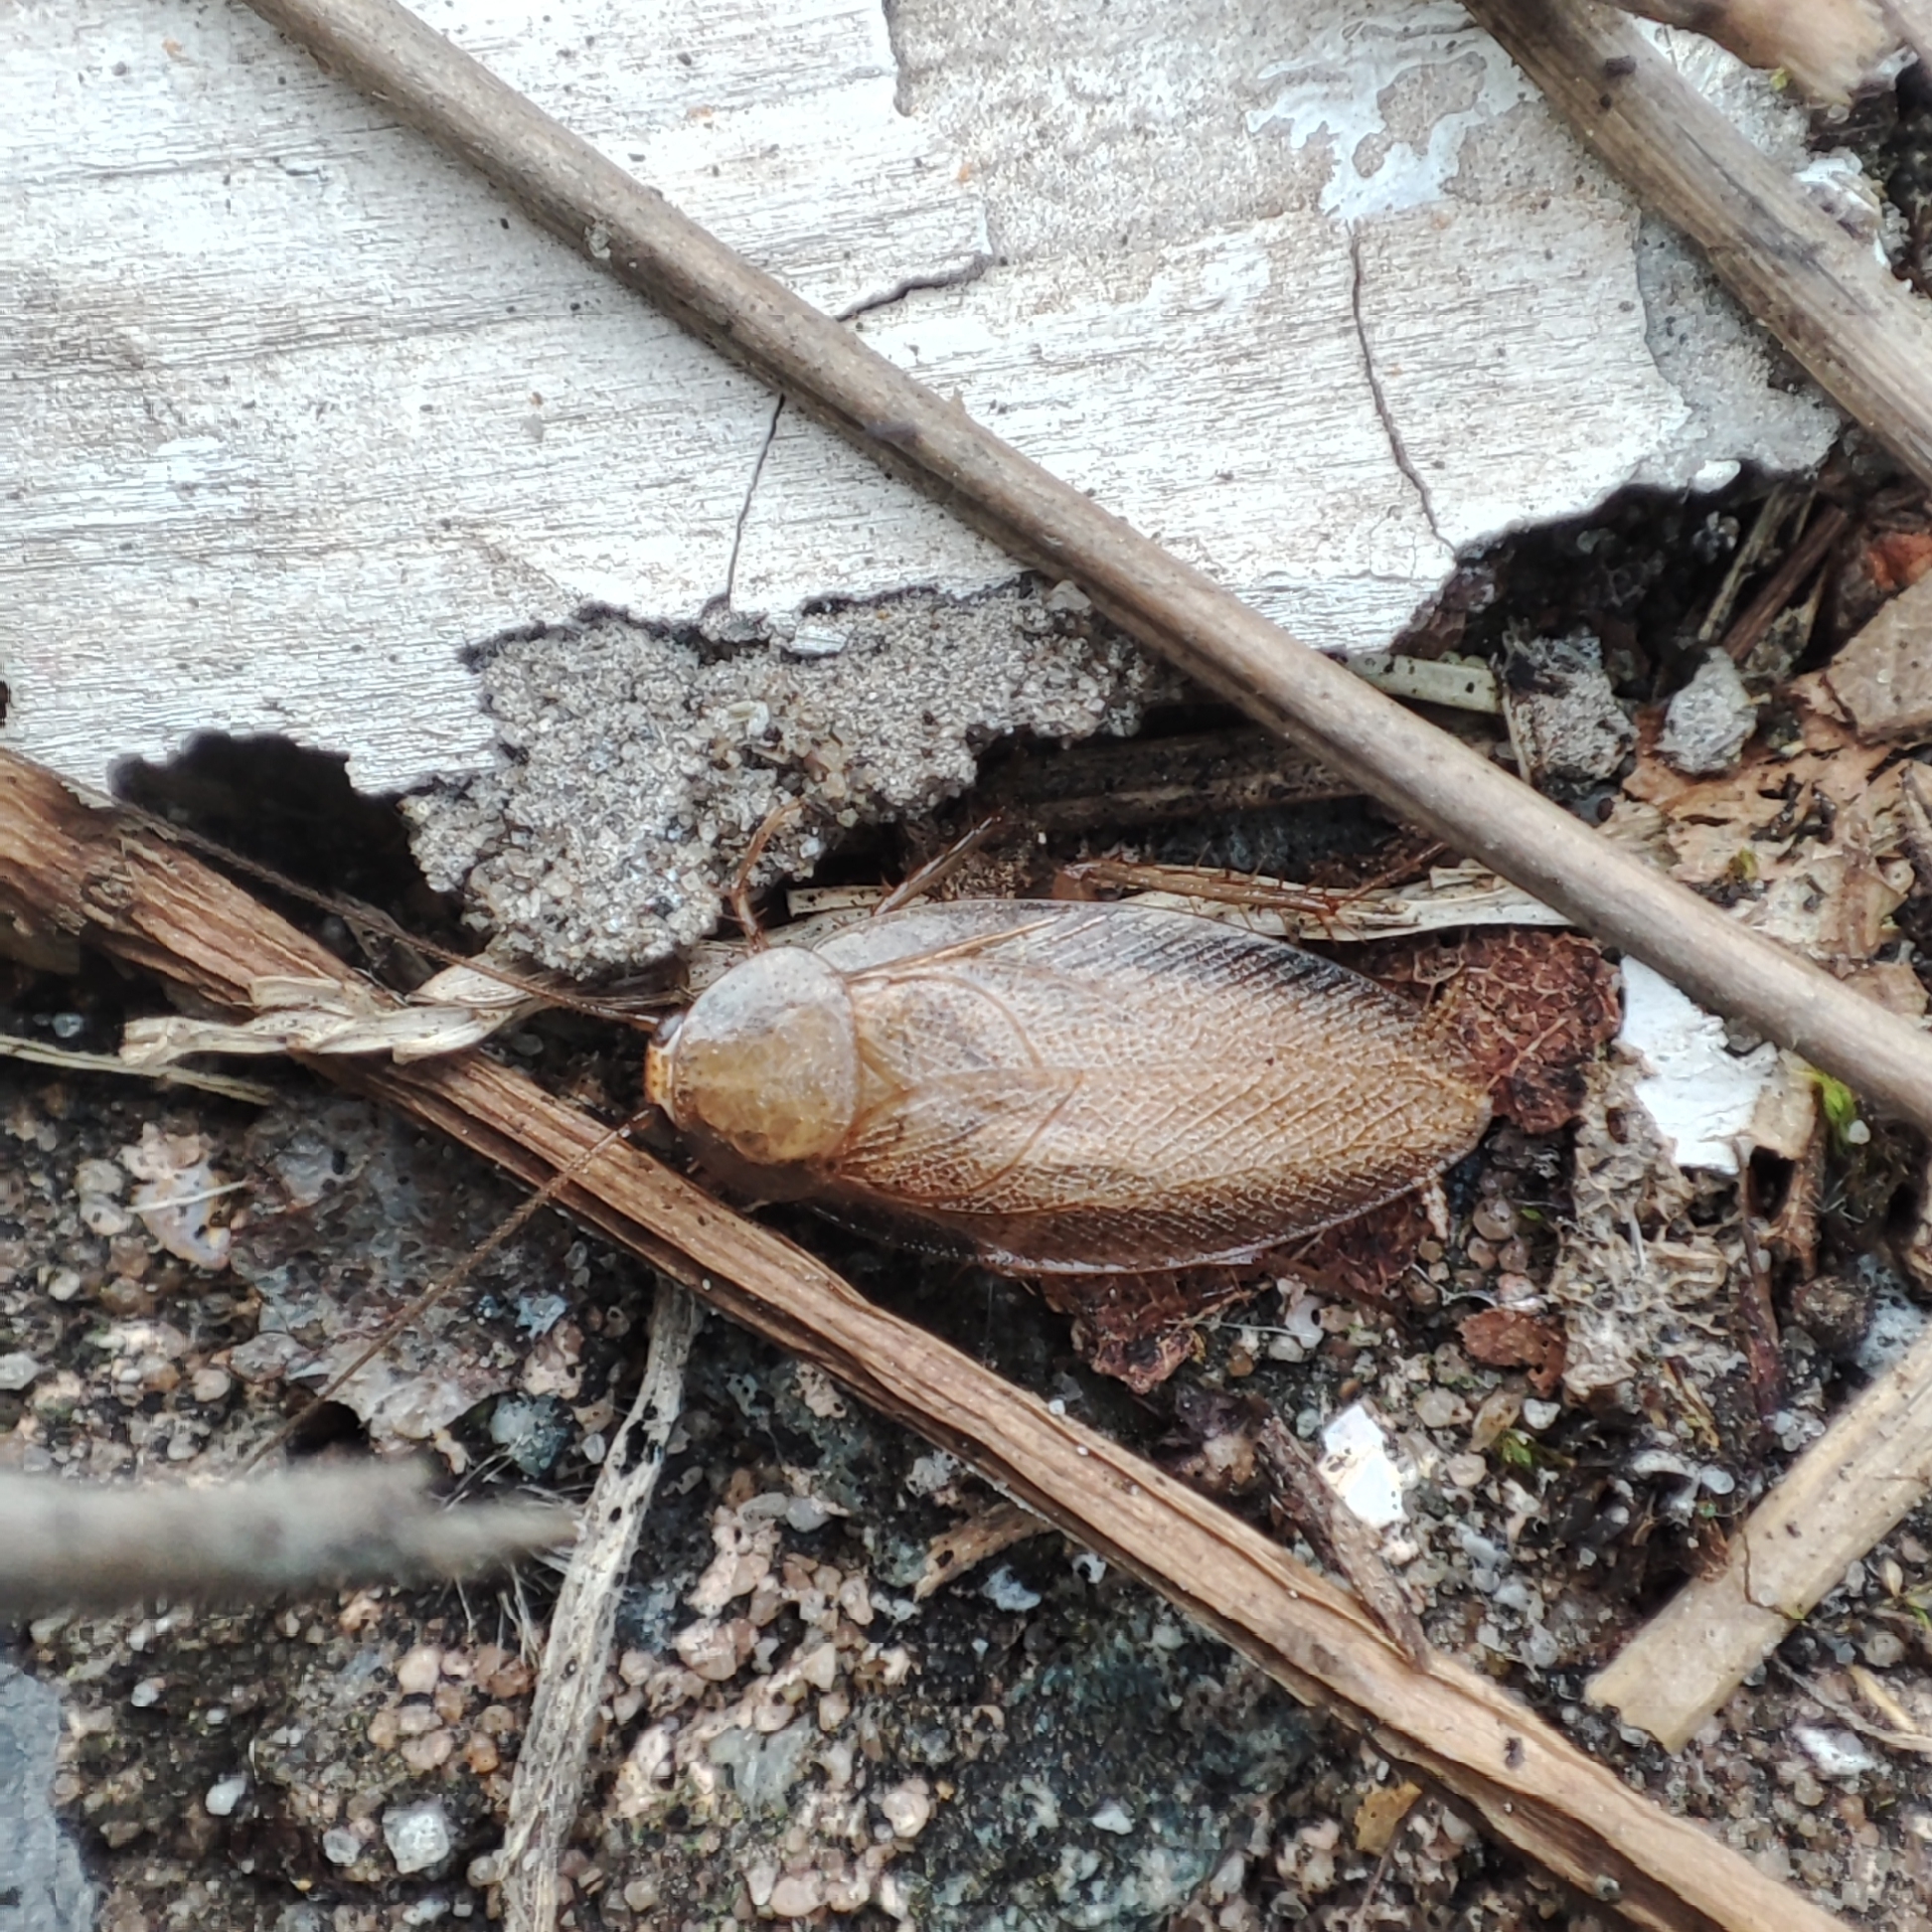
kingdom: Animalia
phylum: Arthropoda
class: Insecta
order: Blattodea
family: Ectobiidae
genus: Ectobius
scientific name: Ectobius pallidus
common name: Tawny cockroach
